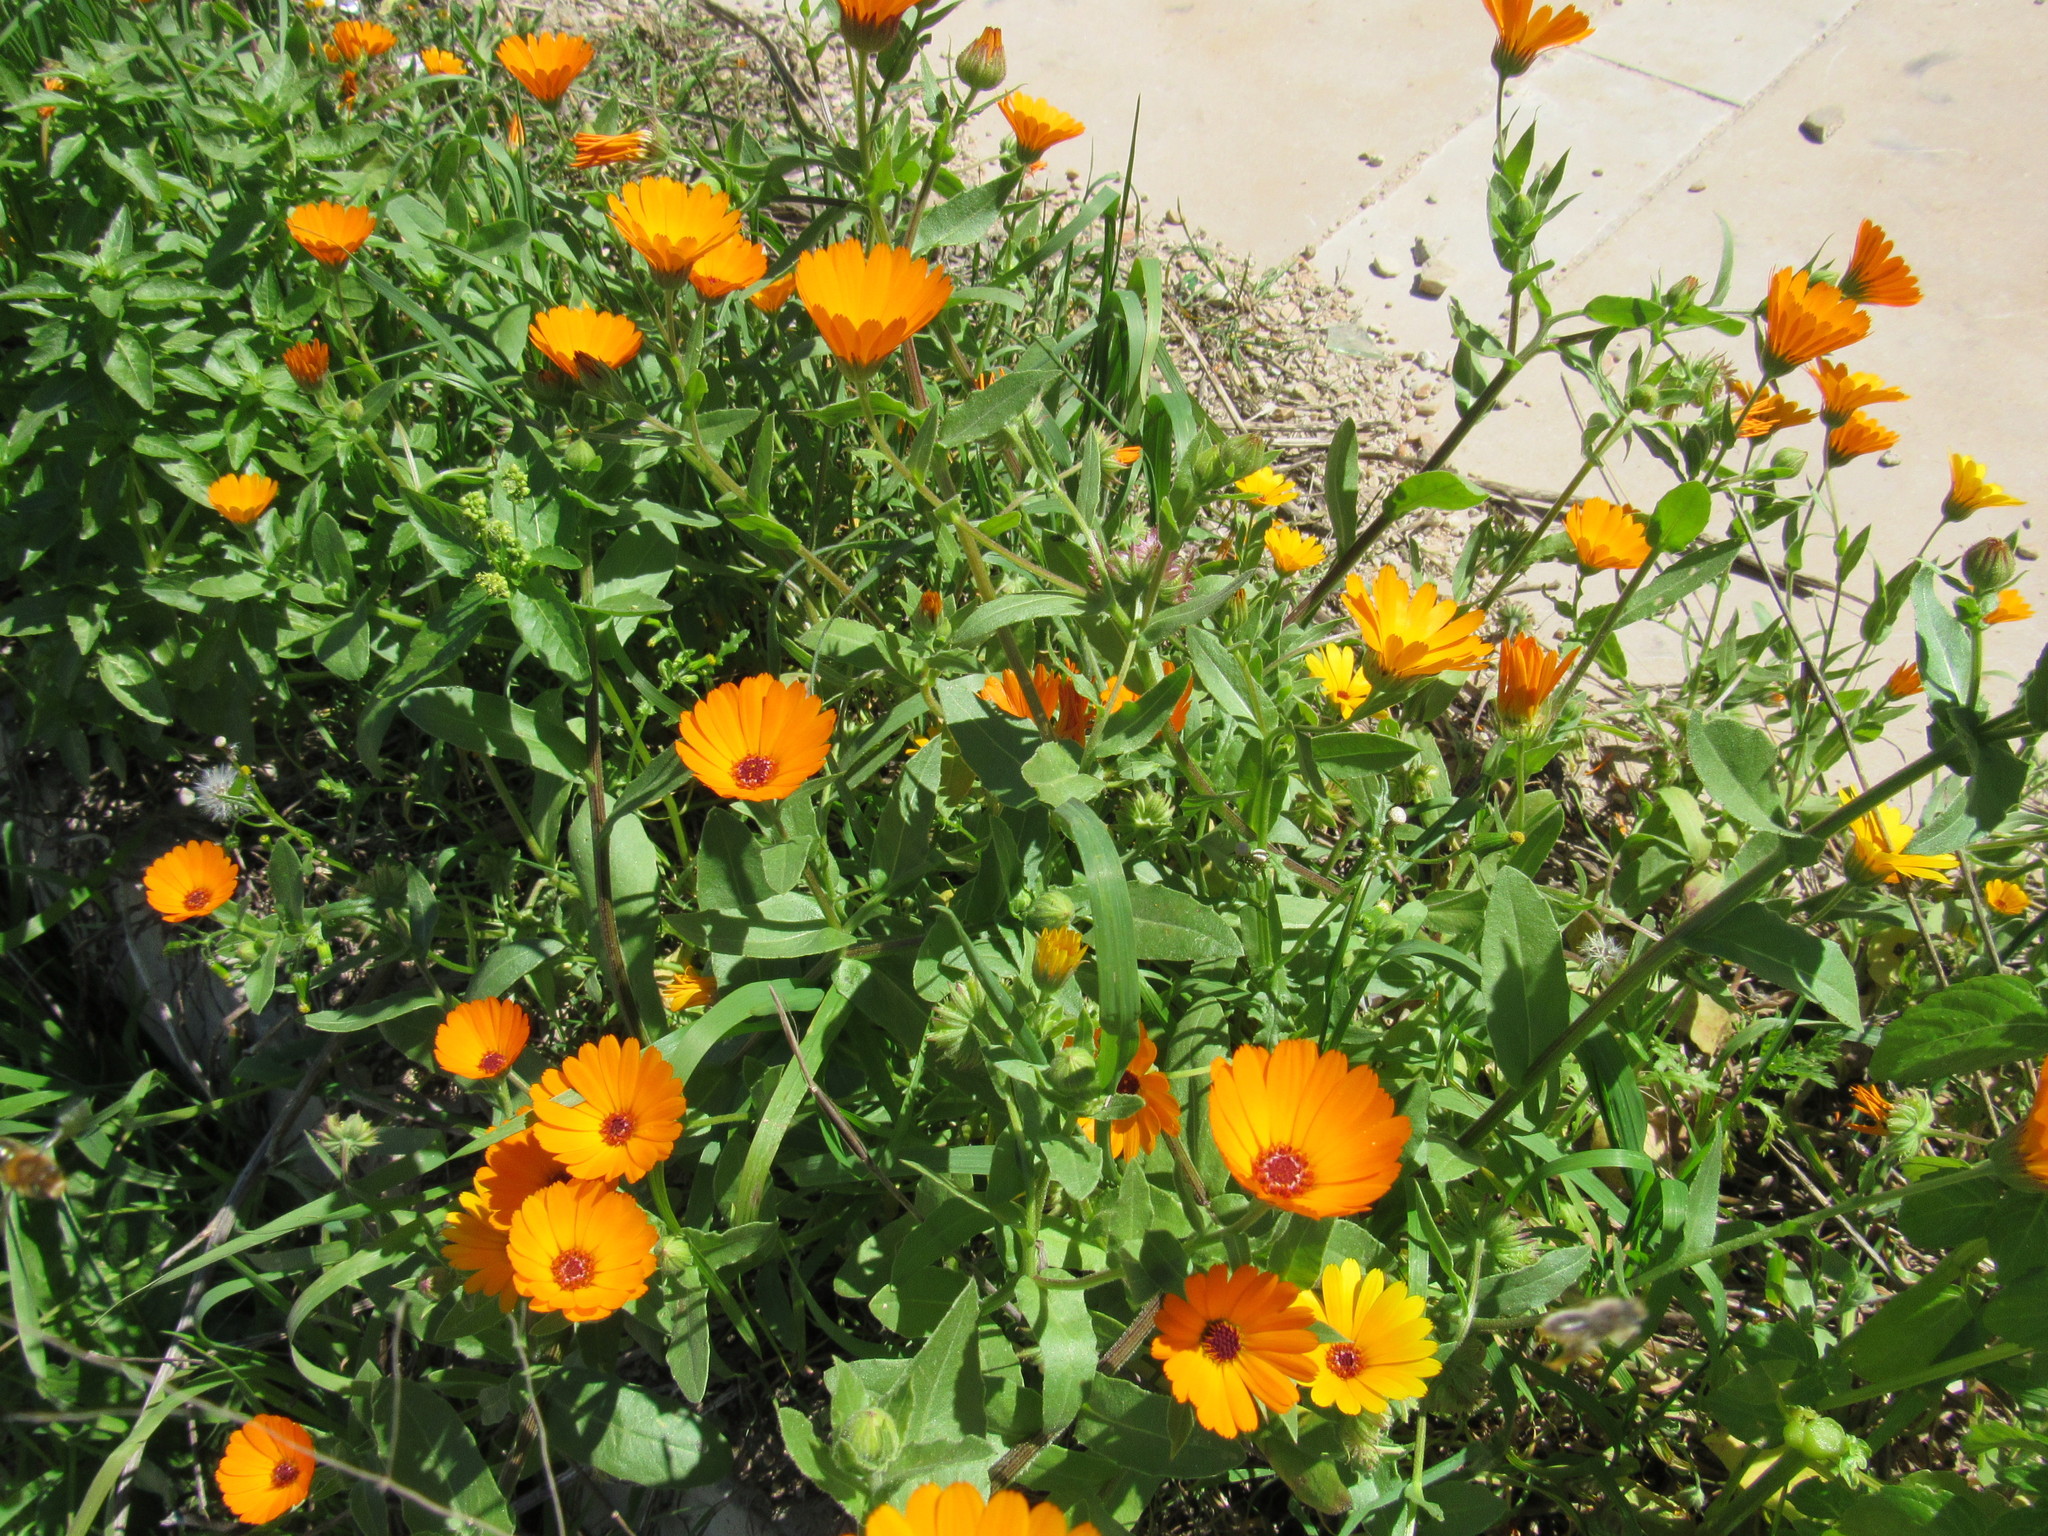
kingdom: Plantae
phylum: Tracheophyta
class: Magnoliopsida
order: Asterales
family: Asteraceae
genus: Calendula
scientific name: Calendula stellata
